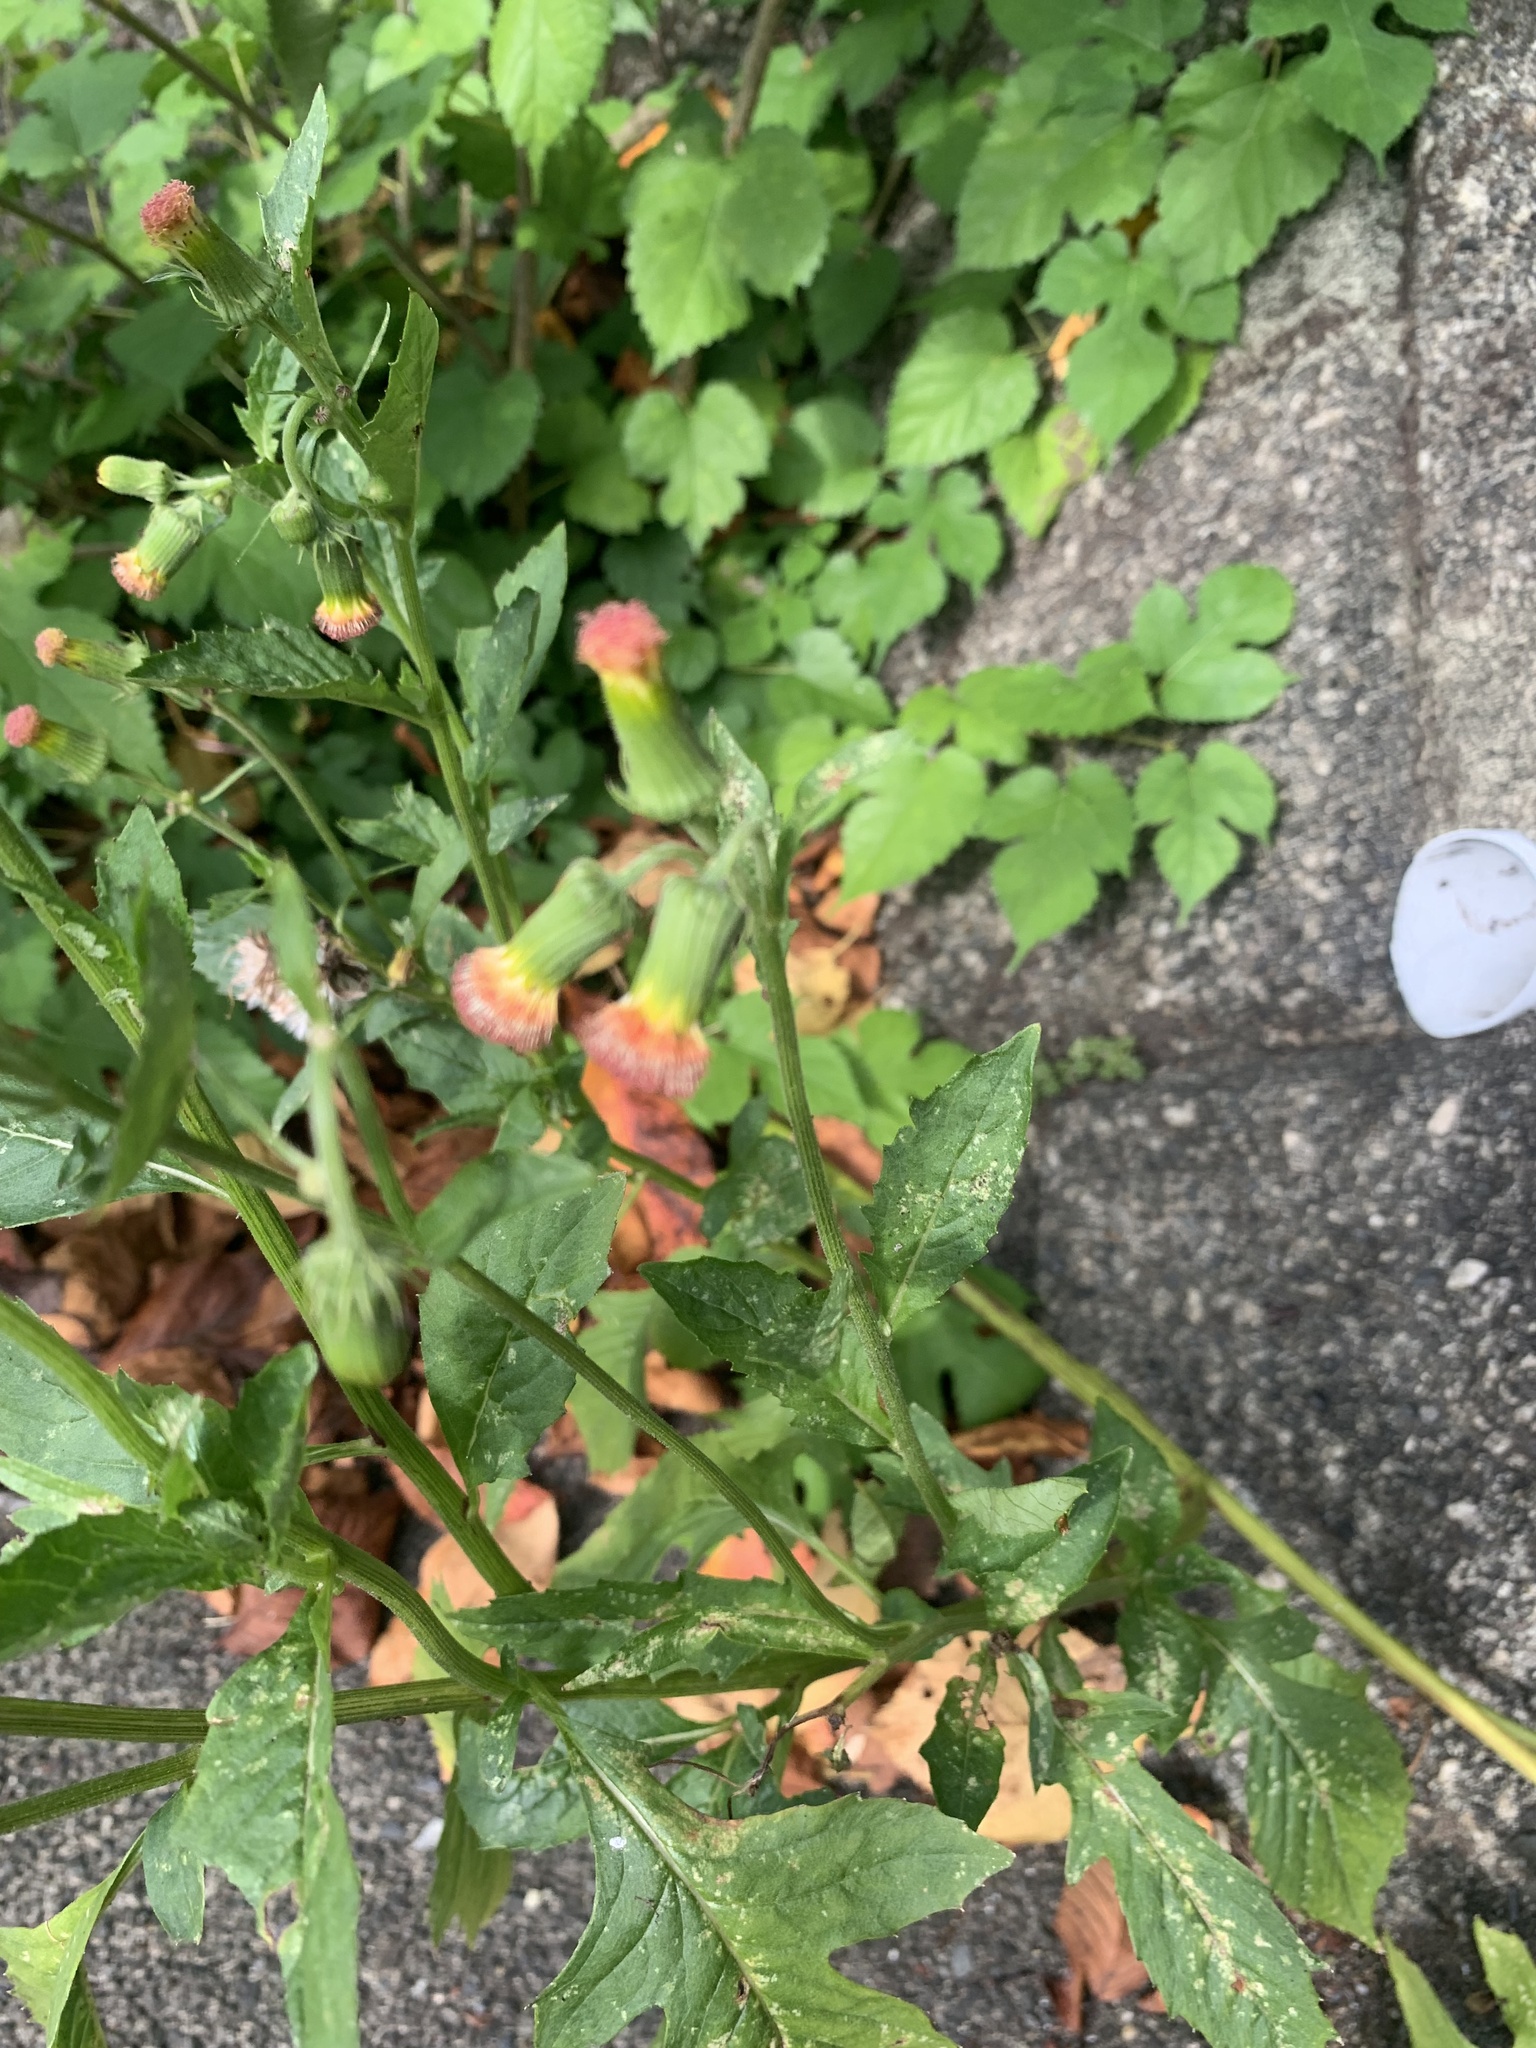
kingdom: Plantae
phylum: Tracheophyta
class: Magnoliopsida
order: Asterales
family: Asteraceae
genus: Crassocephalum
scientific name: Crassocephalum crepidioides
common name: Redflower ragleaf
